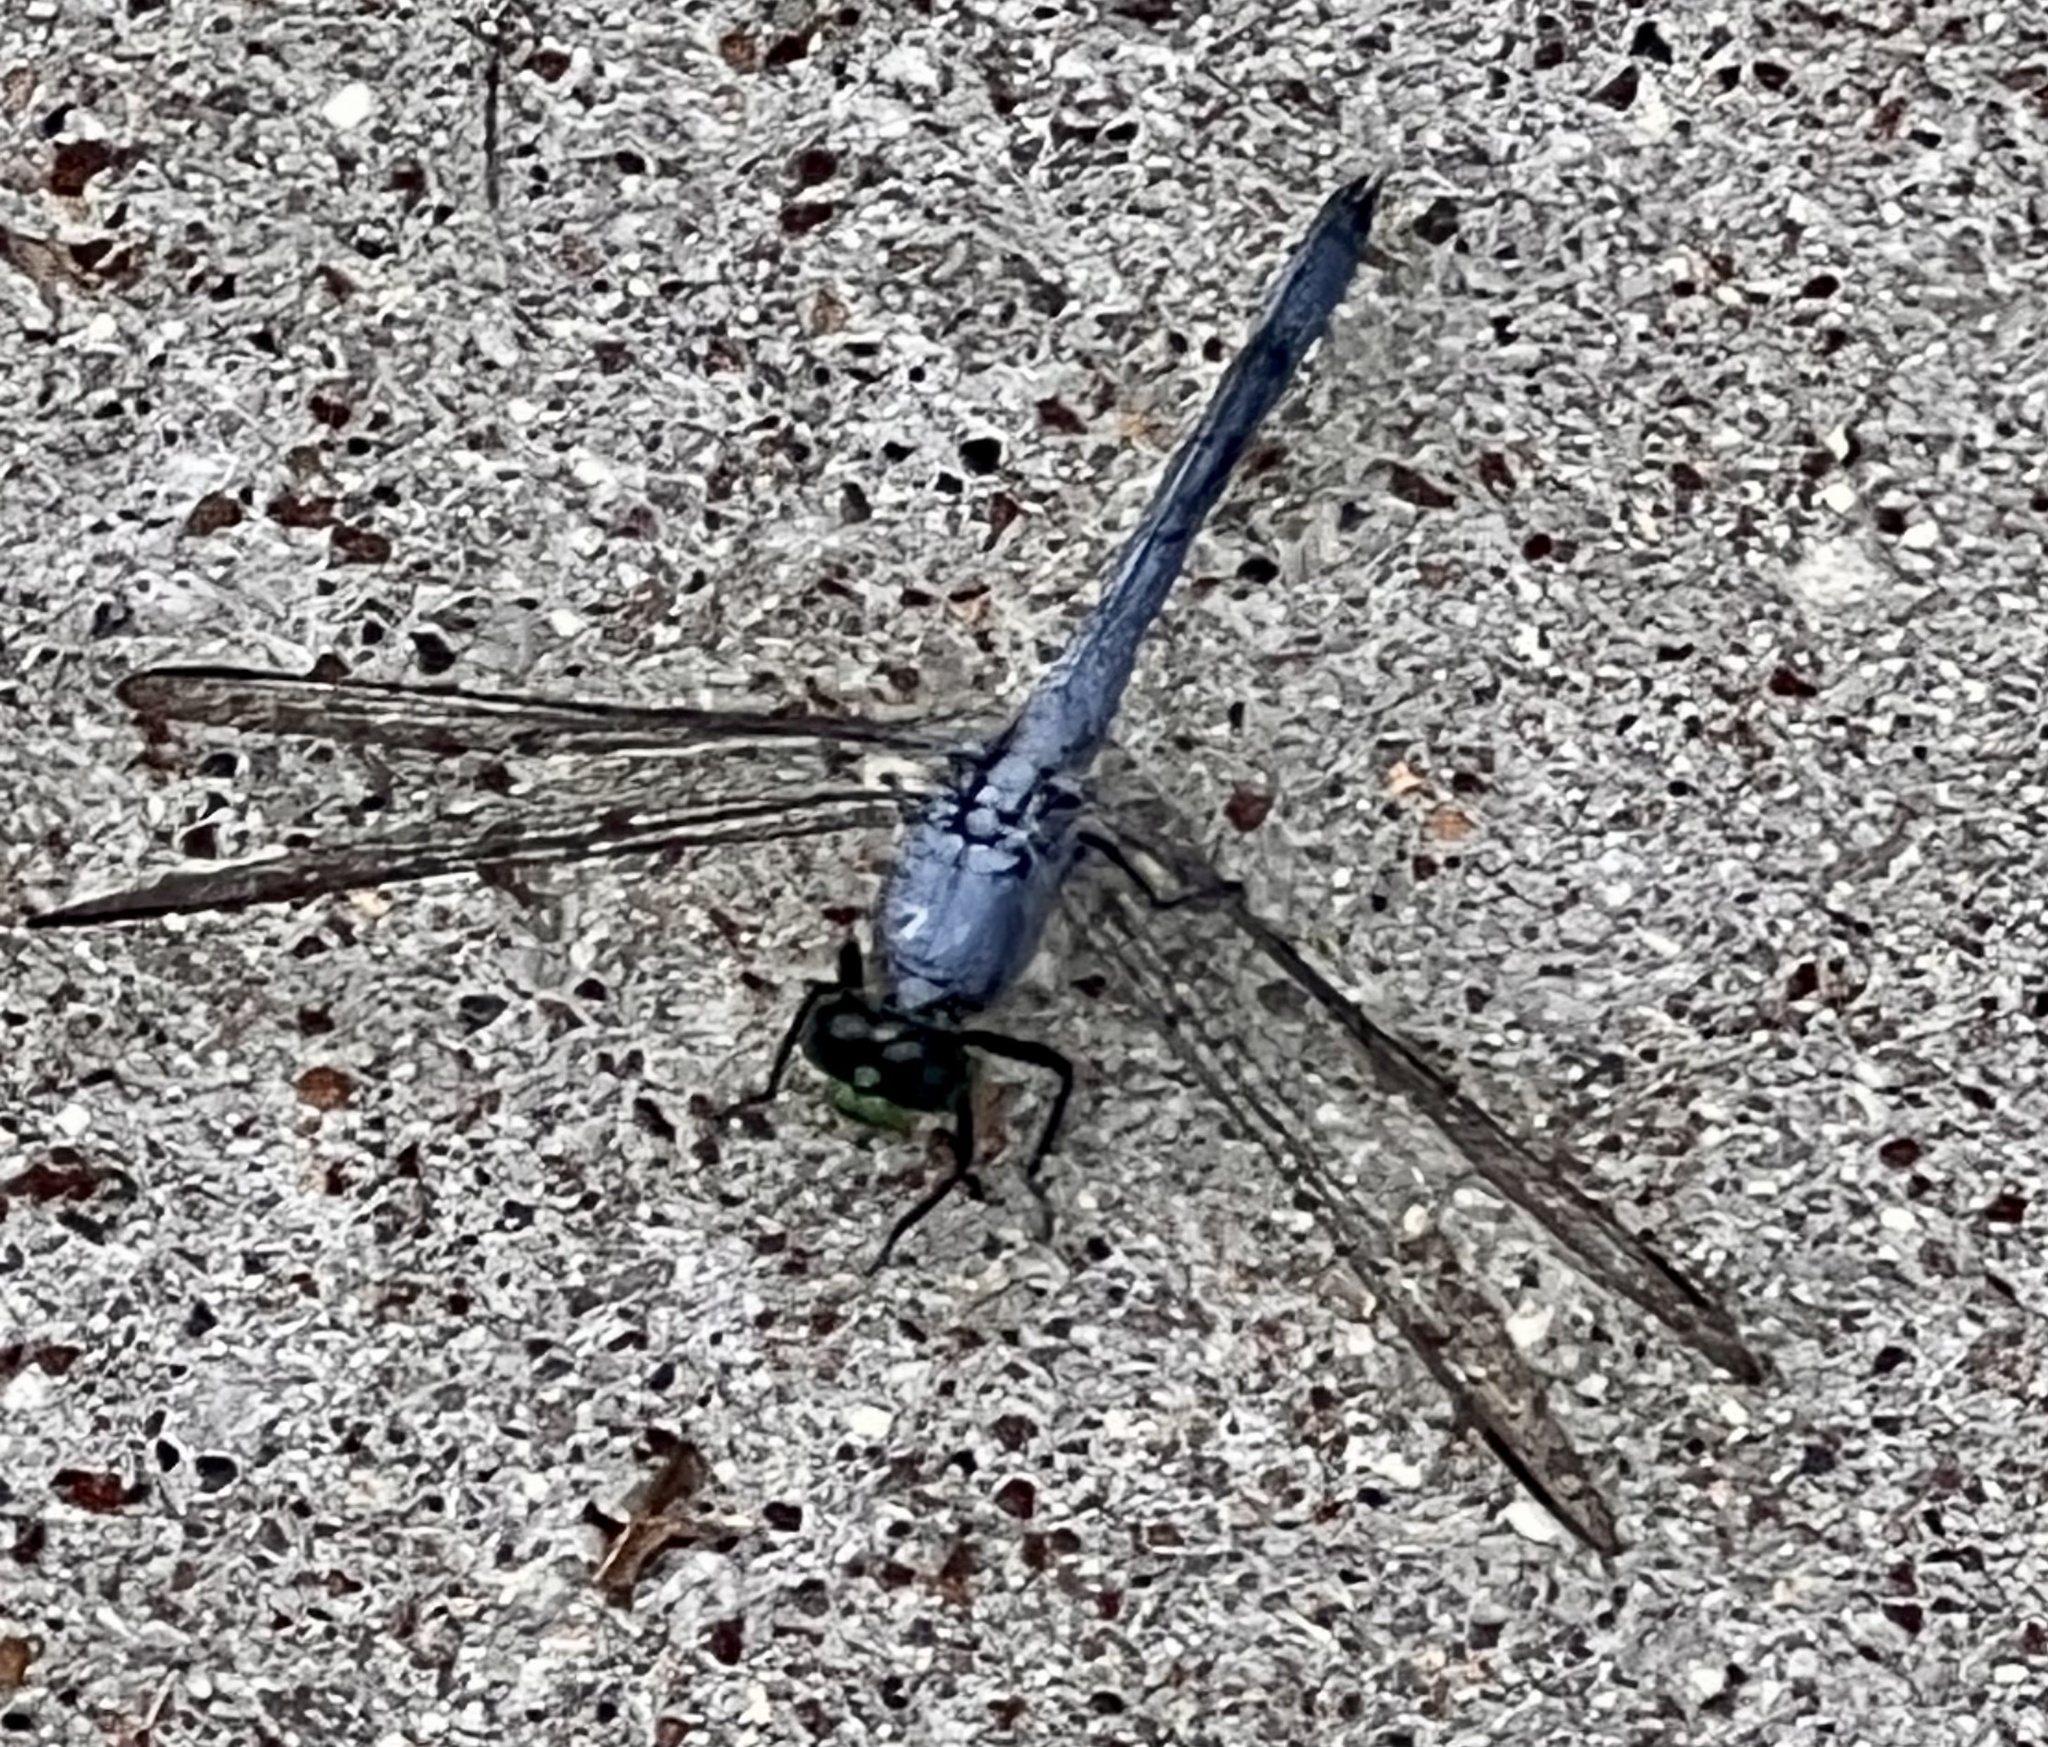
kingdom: Animalia
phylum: Arthropoda
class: Insecta
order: Odonata
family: Libellulidae
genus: Erythemis
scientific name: Erythemis simplicicollis
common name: Eastern pondhawk
